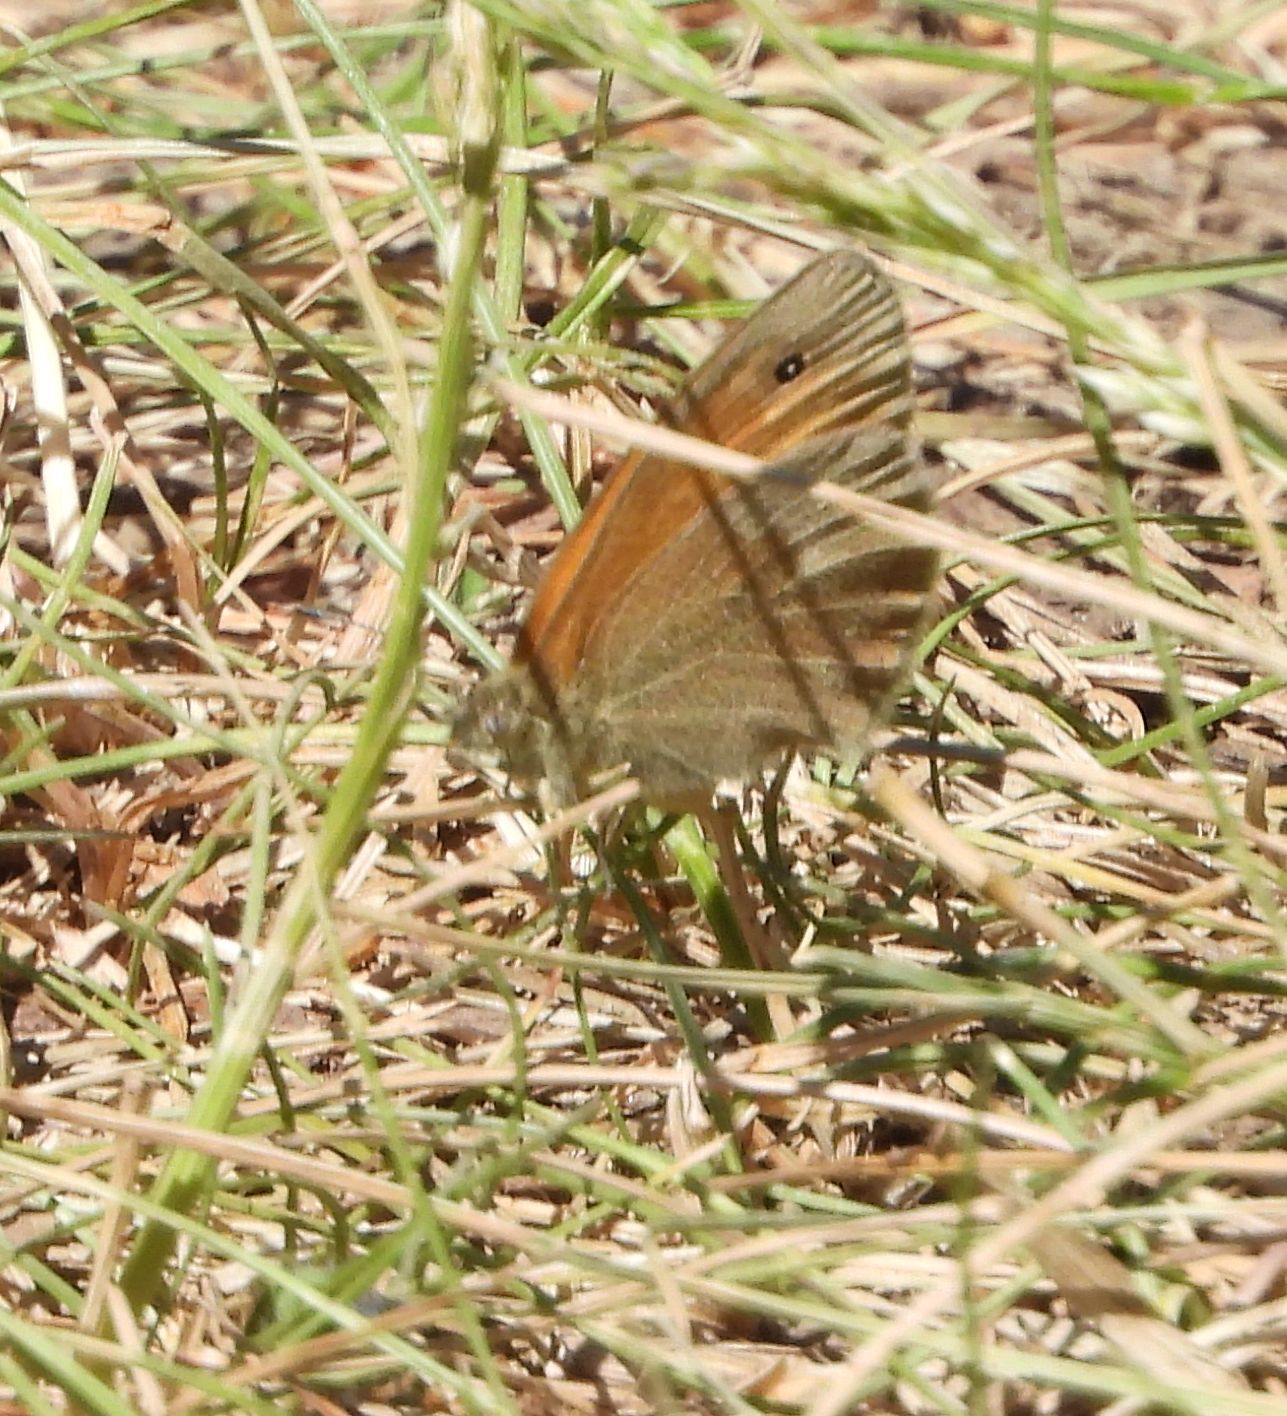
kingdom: Animalia
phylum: Arthropoda
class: Insecta
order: Lepidoptera
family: Nymphalidae
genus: Coenonympha
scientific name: Coenonympha california
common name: Common ringlet
